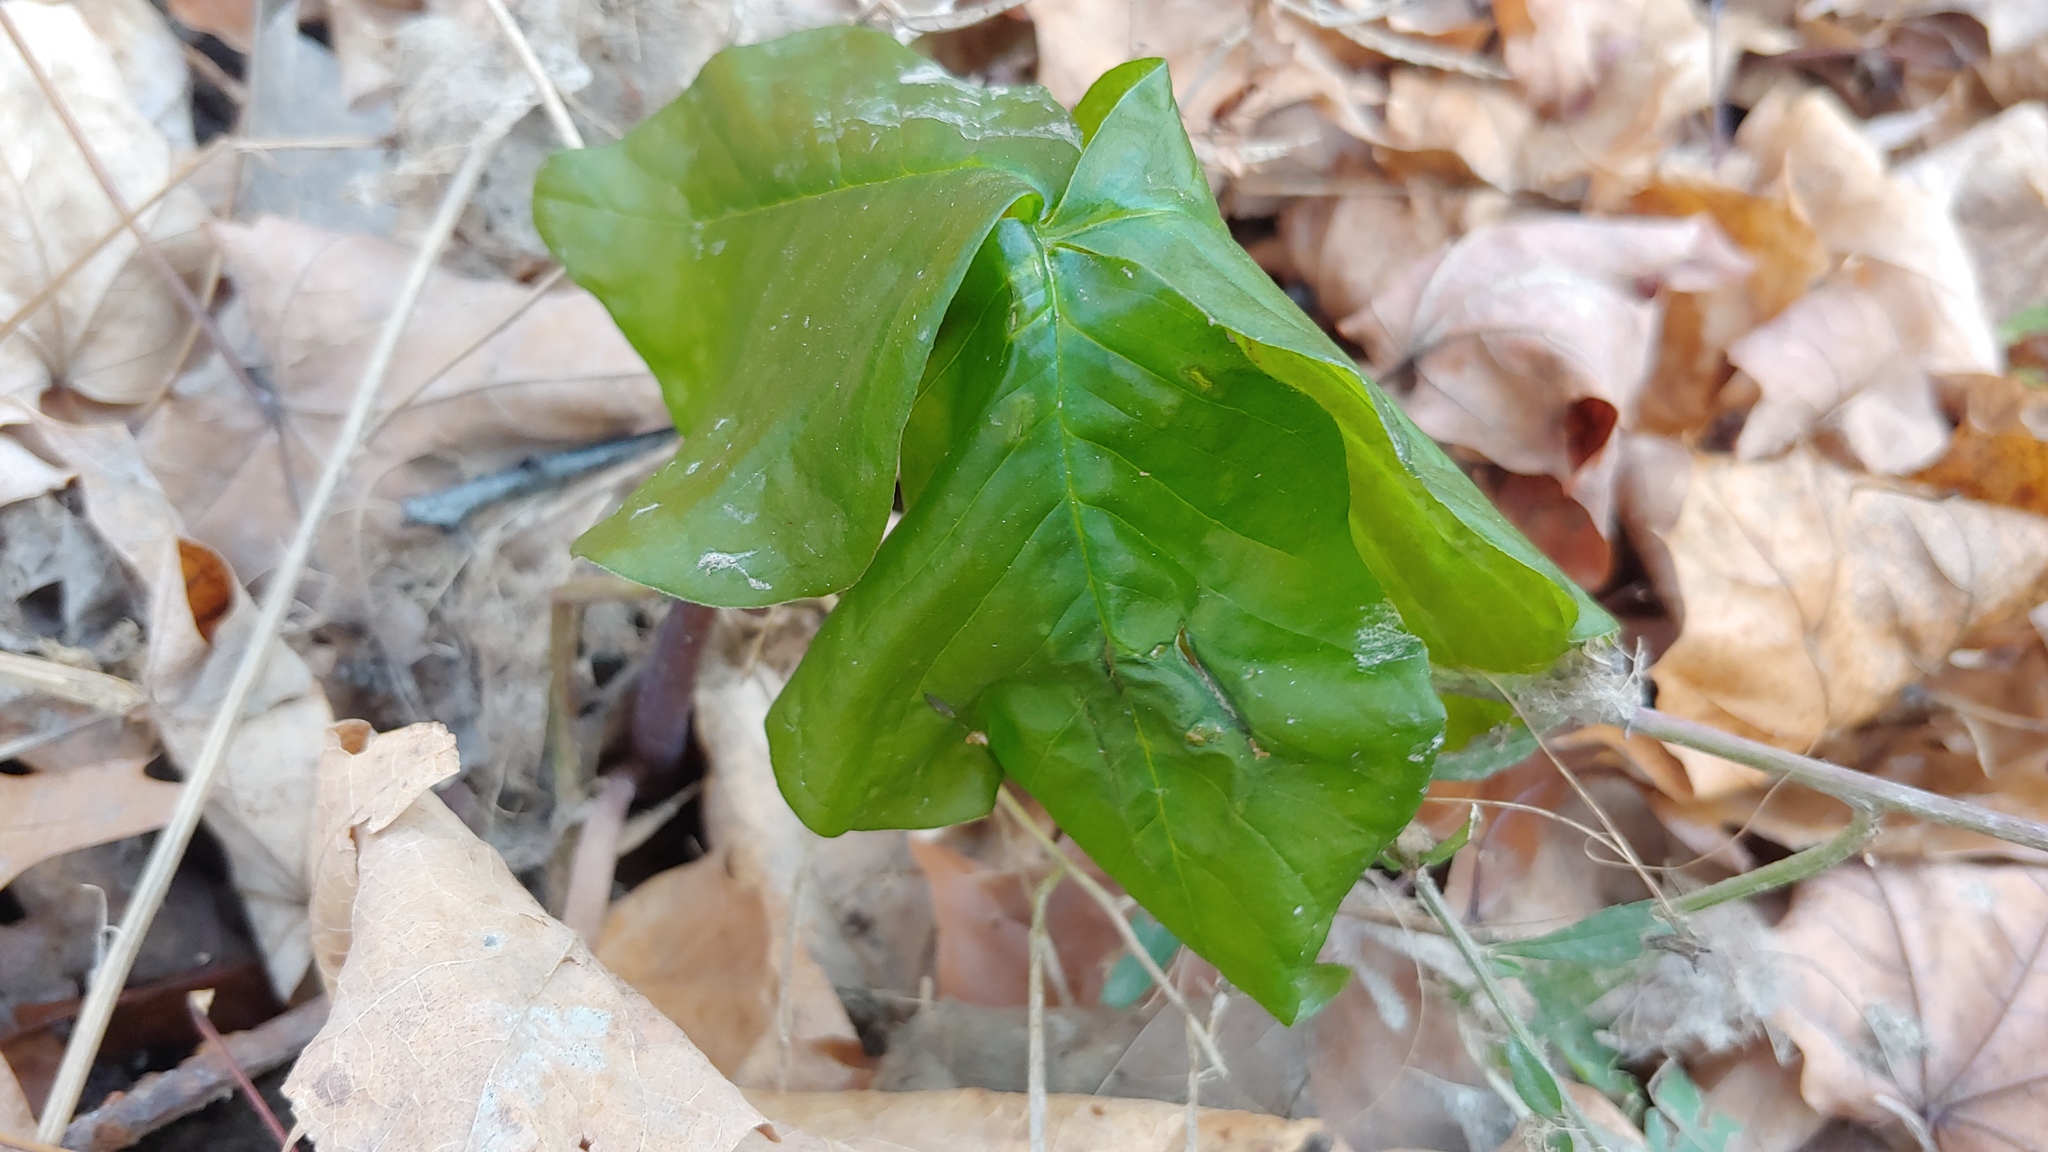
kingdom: Plantae
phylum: Tracheophyta
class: Liliopsida
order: Alismatales
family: Araceae
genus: Arisaema
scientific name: Arisaema triphyllum
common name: Jack-in-the-pulpit
